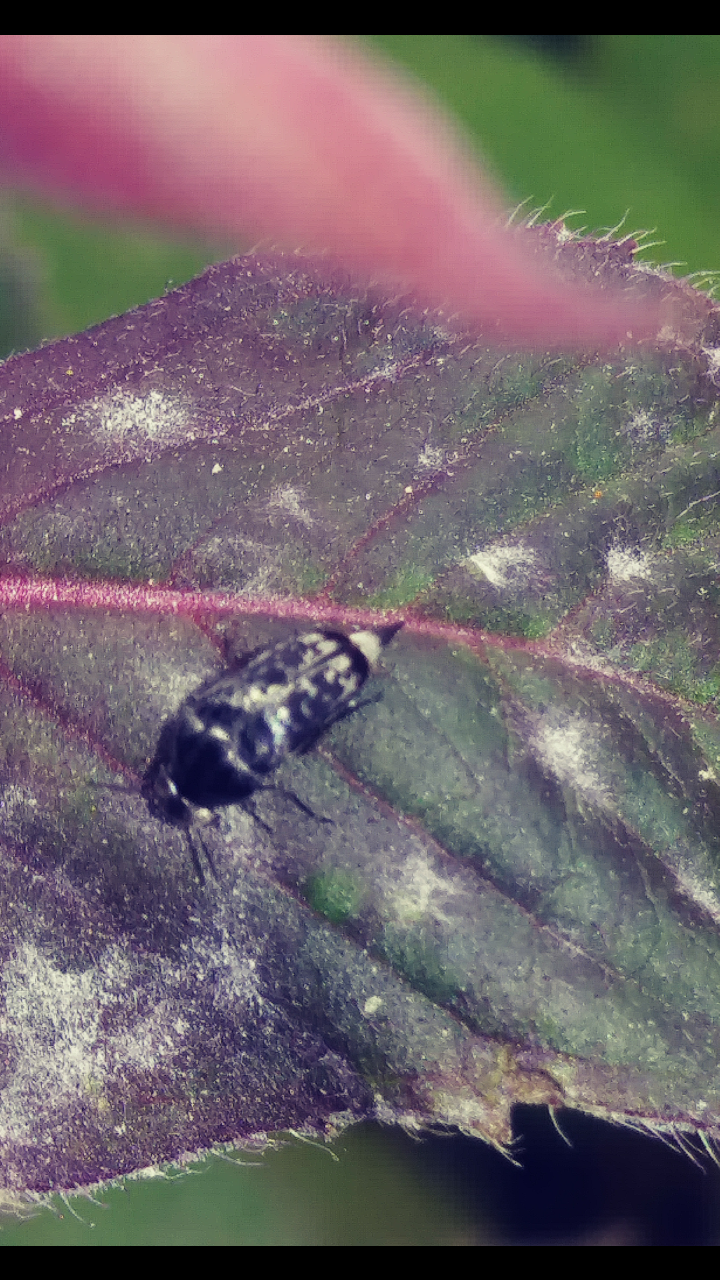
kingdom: Animalia
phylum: Arthropoda
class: Insecta
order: Coleoptera
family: Mordellidae
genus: Mordella
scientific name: Mordella marginata
